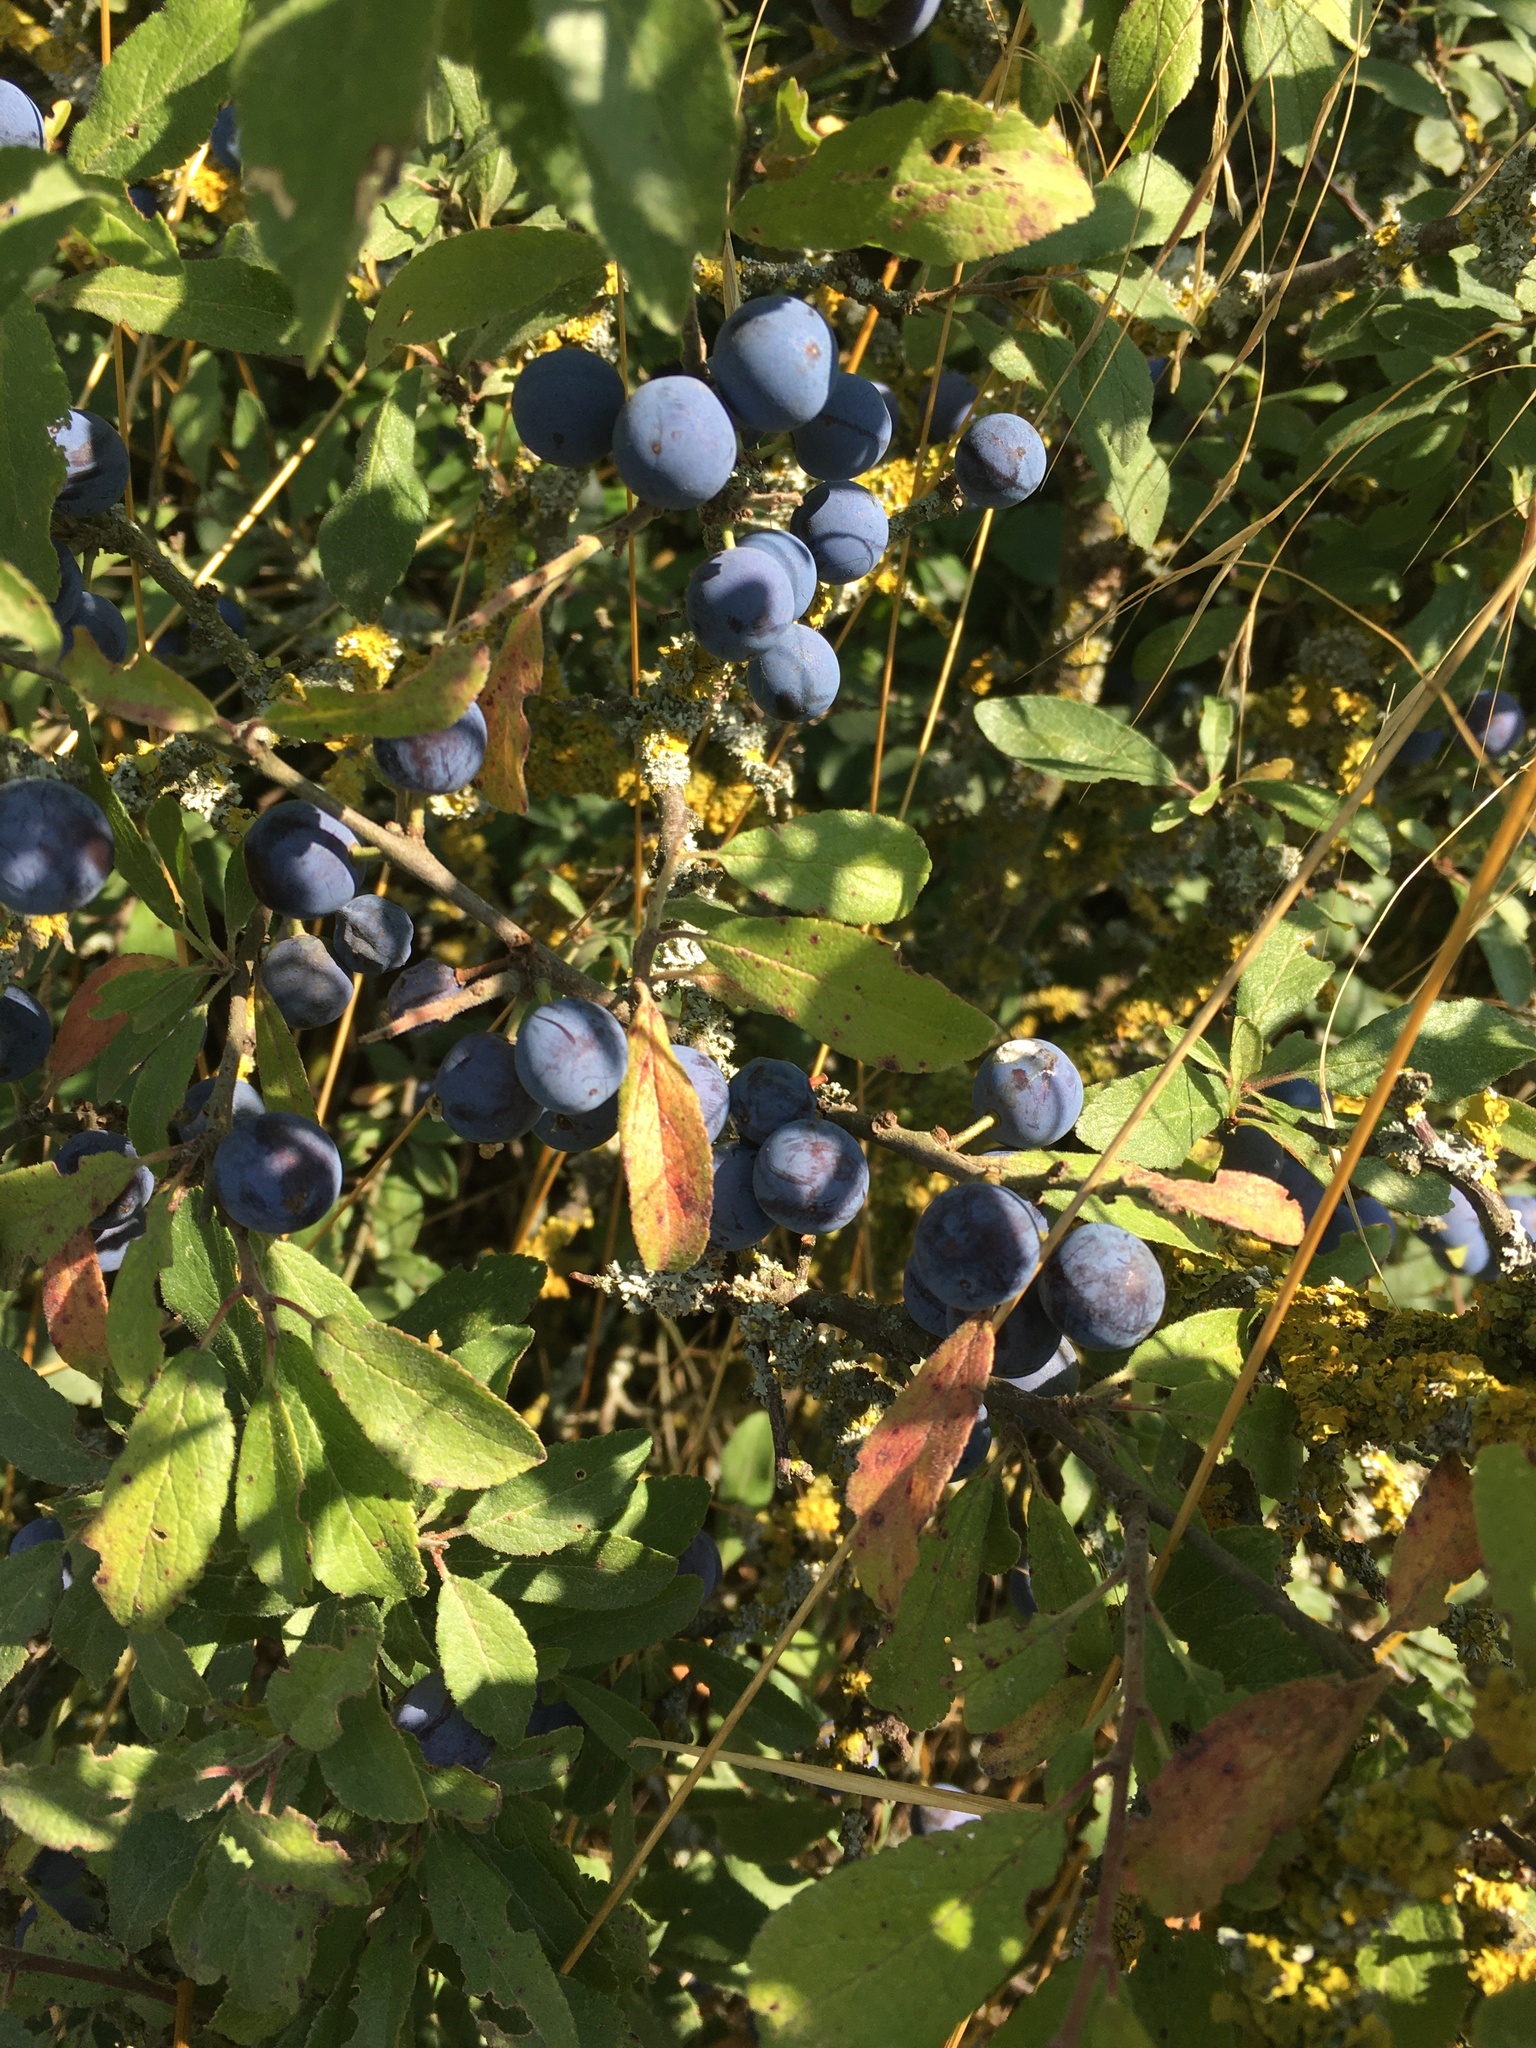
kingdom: Plantae
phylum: Tracheophyta
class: Magnoliopsida
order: Rosales
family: Rosaceae
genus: Prunus
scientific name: Prunus spinosa
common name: Blackthorn
